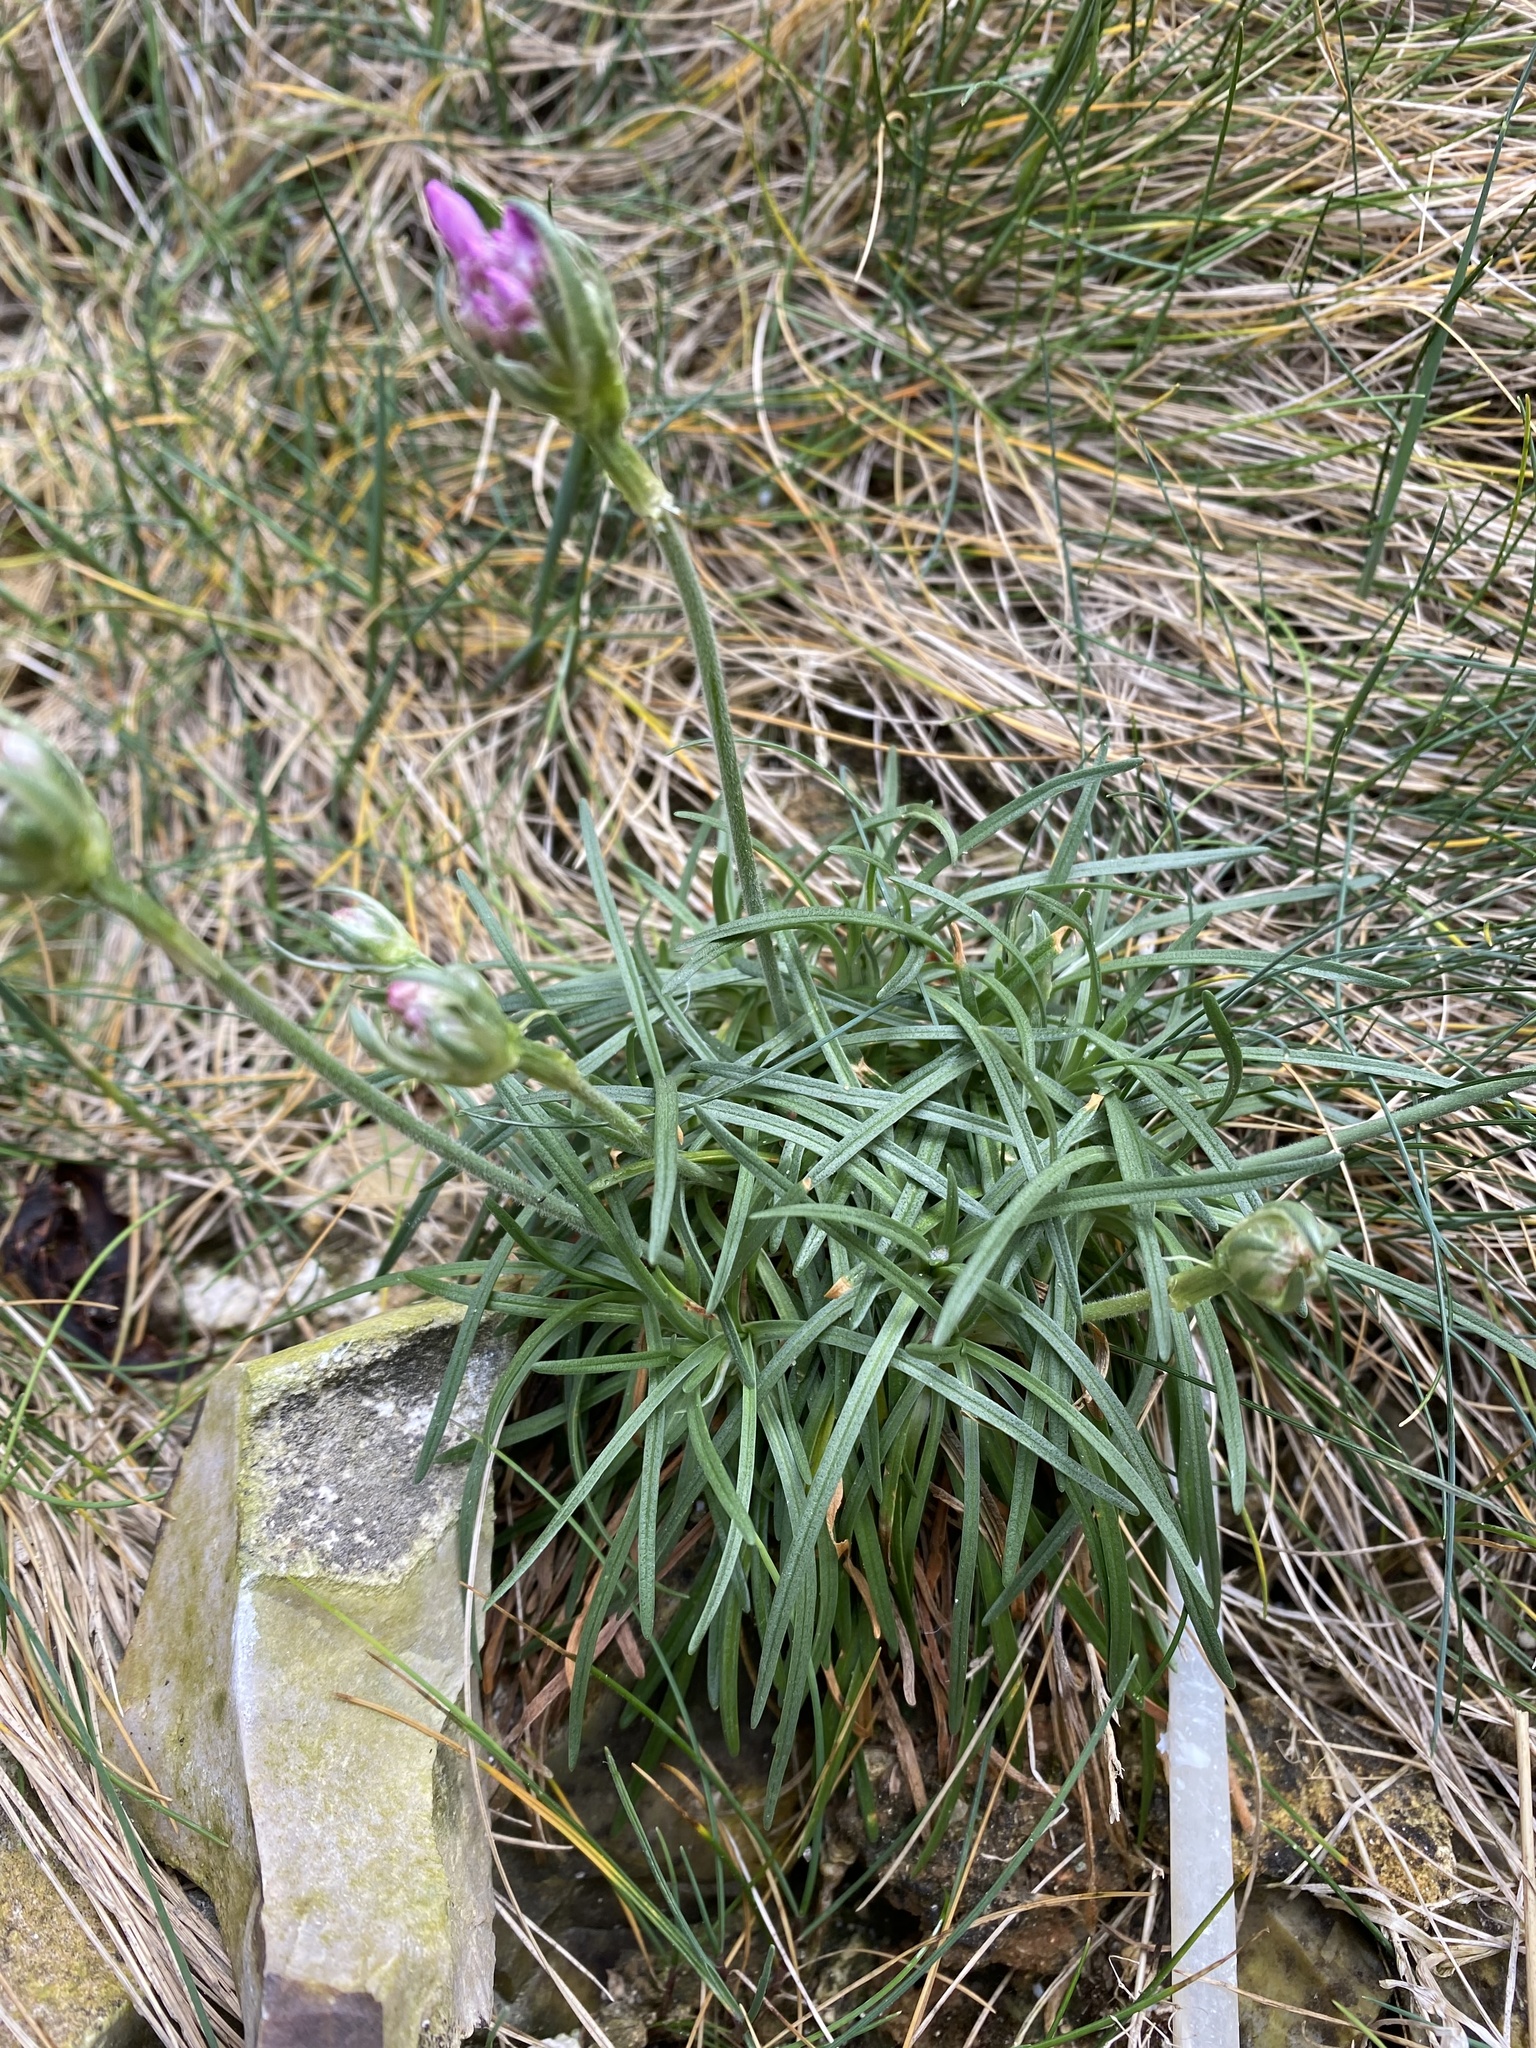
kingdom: Plantae
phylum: Tracheophyta
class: Magnoliopsida
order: Caryophyllales
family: Plumbaginaceae
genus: Armeria
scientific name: Armeria maritima
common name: Thrift
